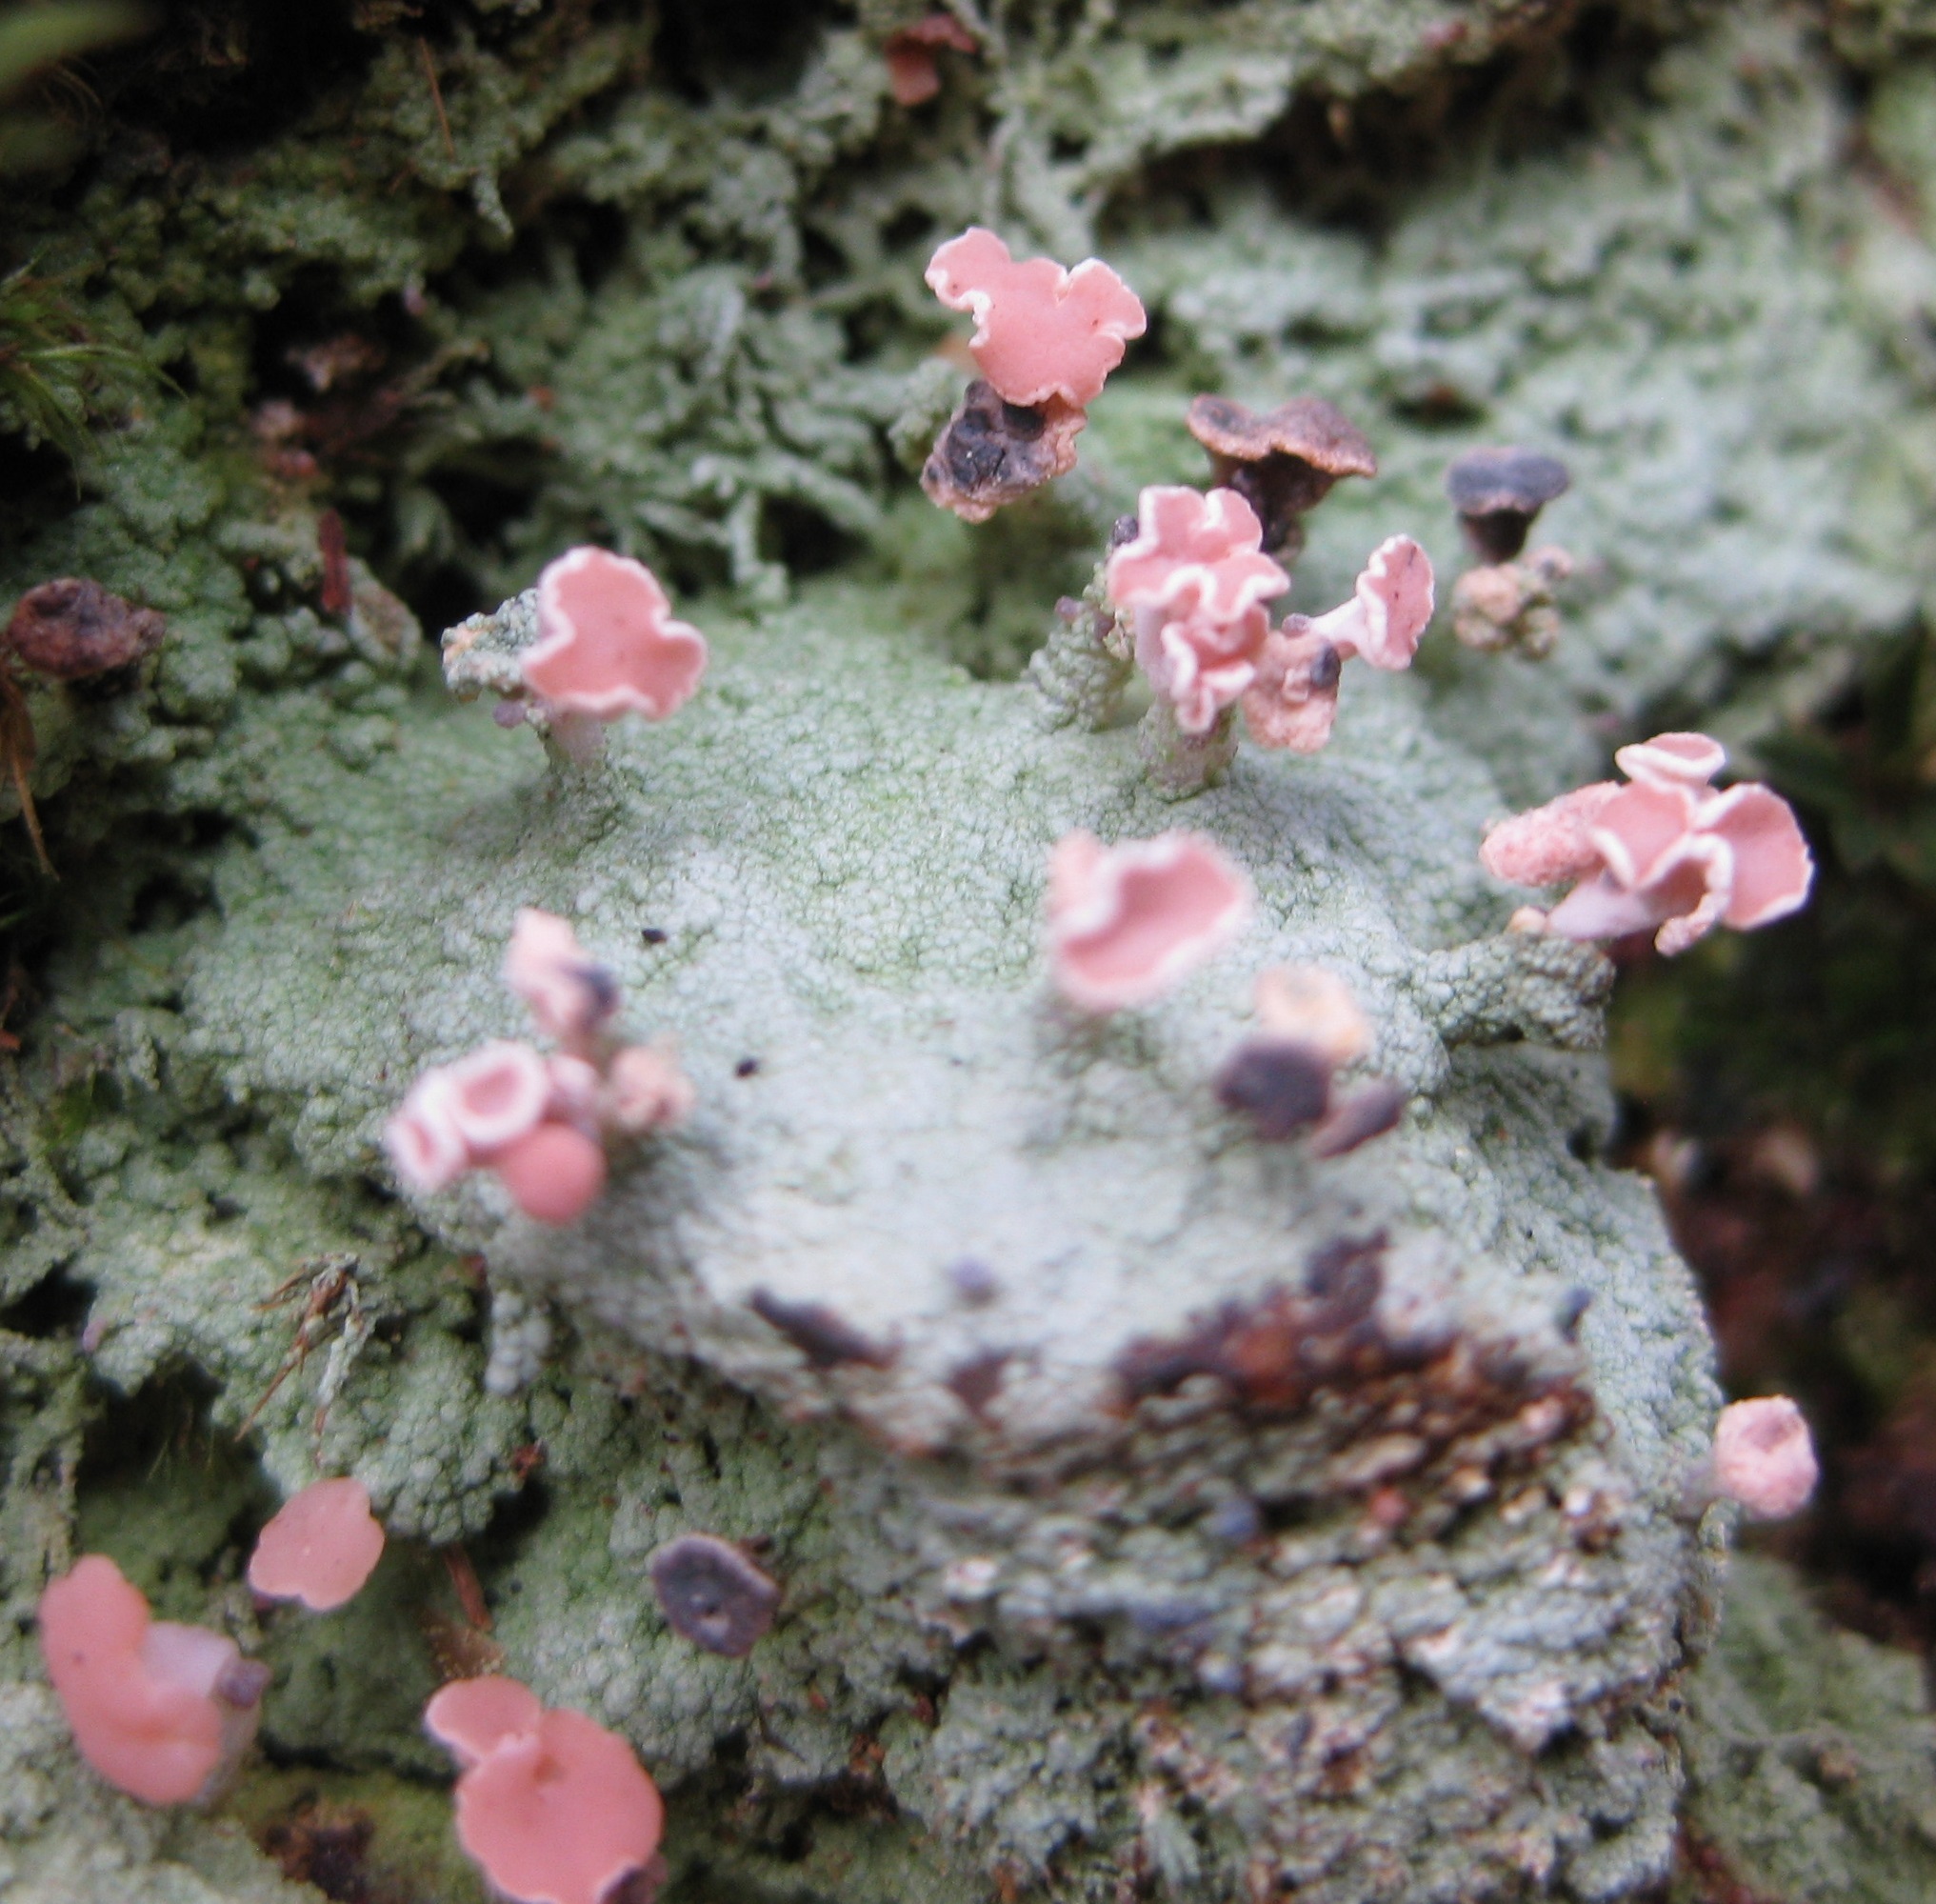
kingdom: Fungi
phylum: Ascomycota
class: Lecanoromycetes
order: Baeomycetales
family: Baeomycetaceae
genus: Baeomyces
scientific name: Baeomyces heteromorphus
